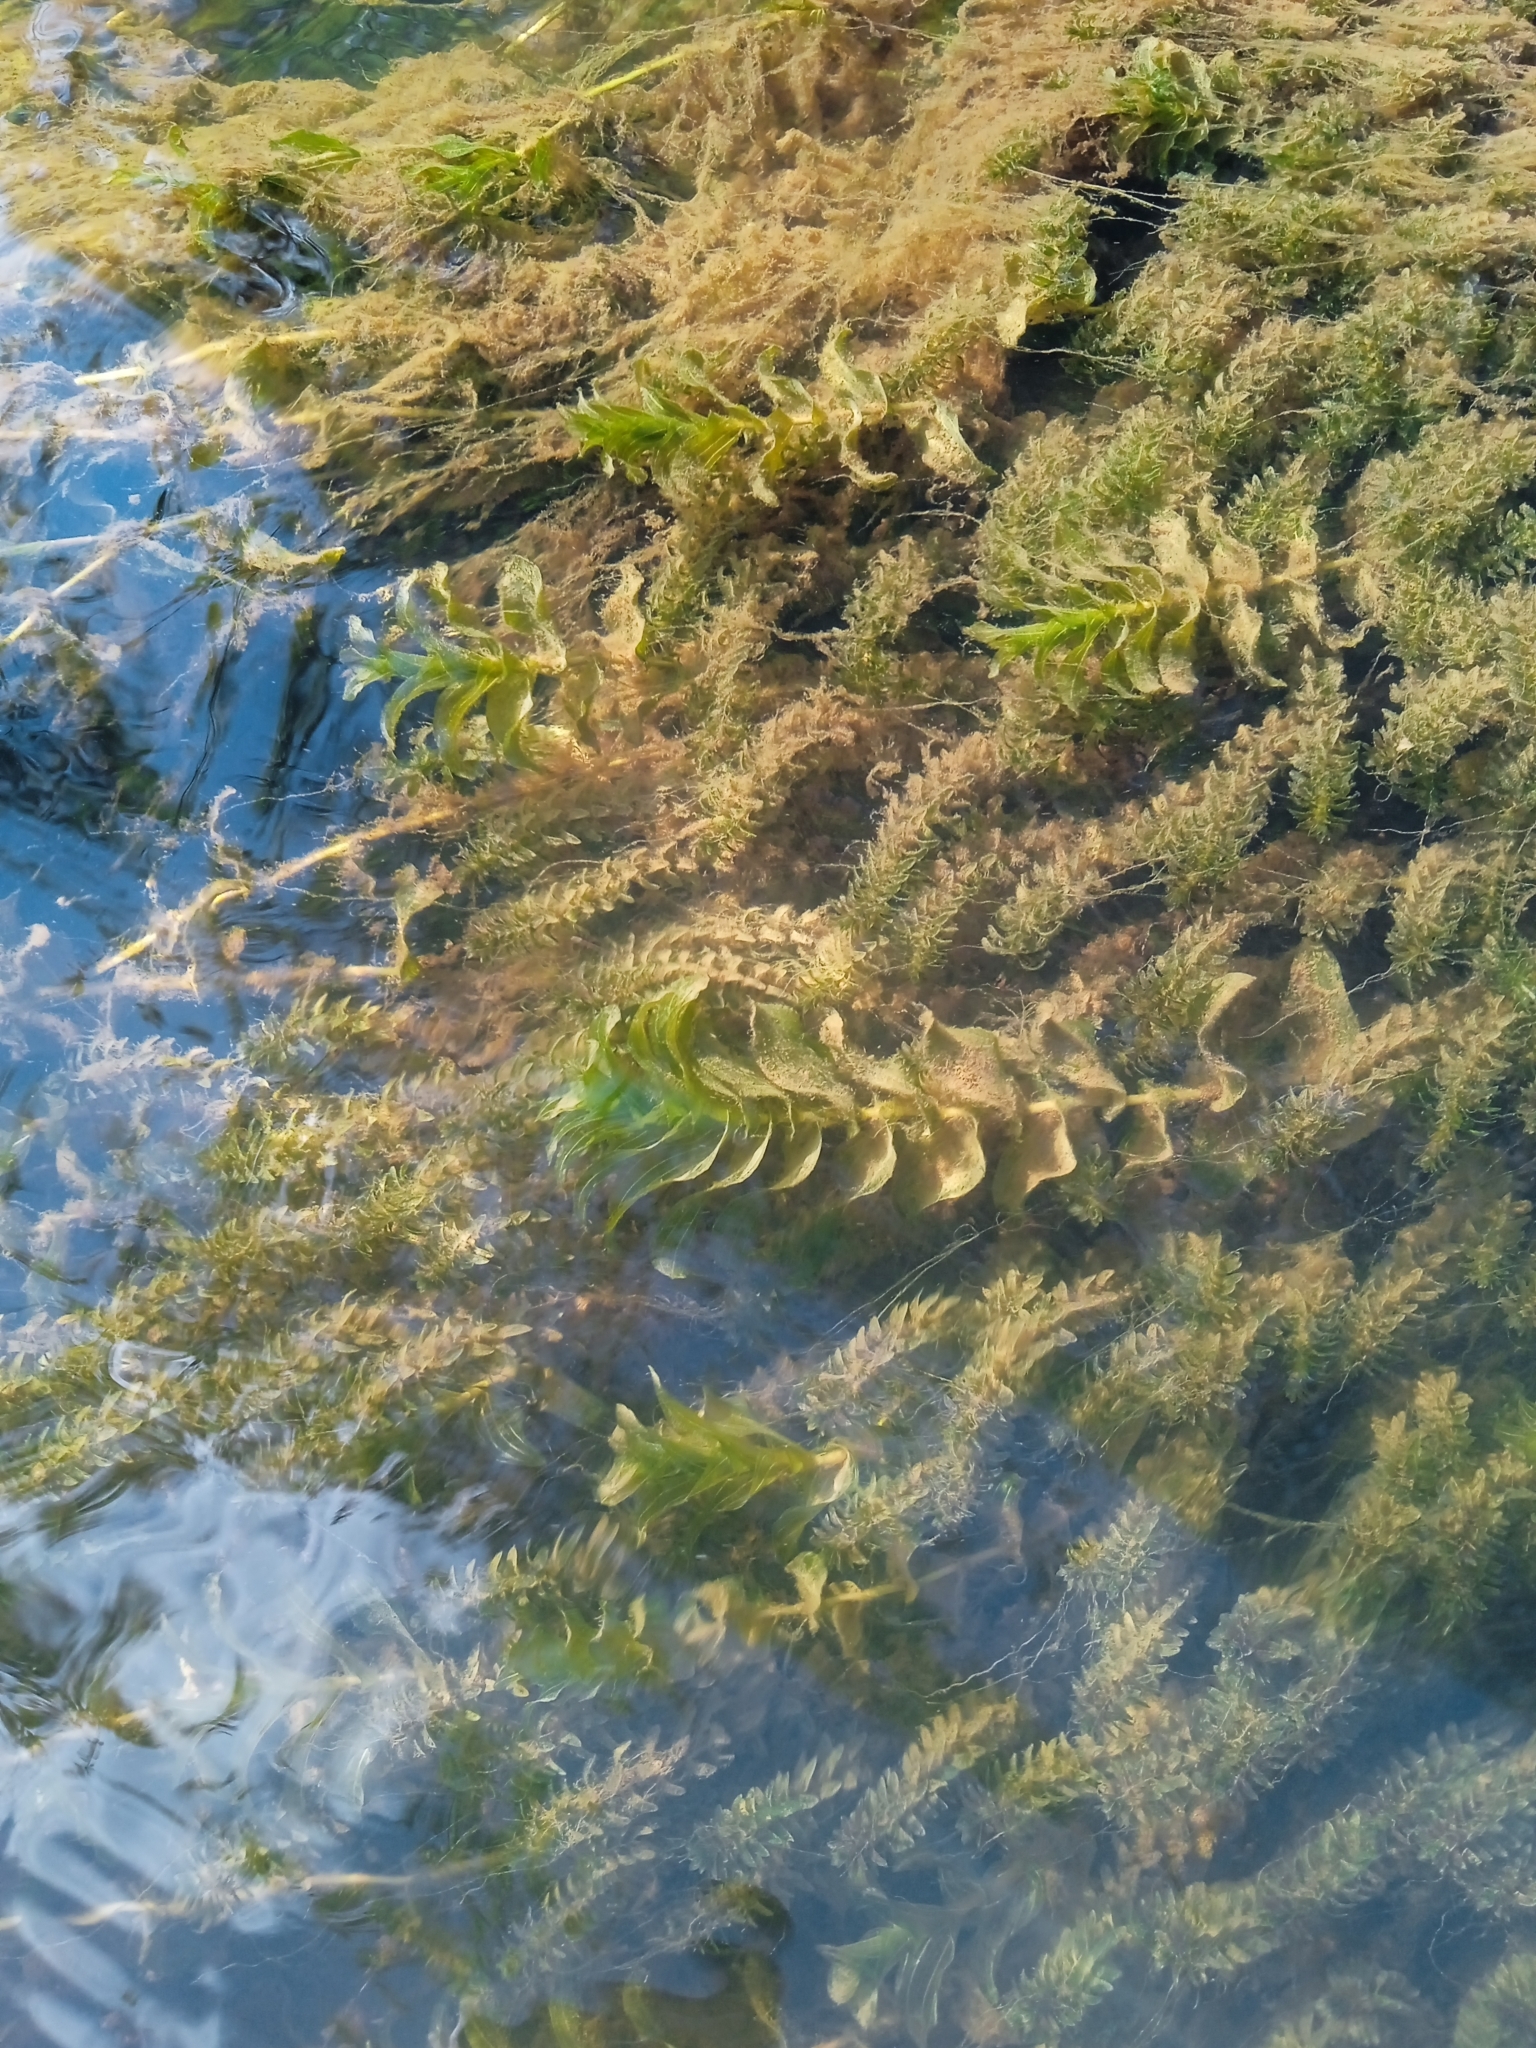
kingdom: Plantae
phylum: Tracheophyta
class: Liliopsida
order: Alismatales
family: Potamogetonaceae
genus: Potamogeton
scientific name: Potamogeton perfoliatus
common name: Perfoliate pondweed
